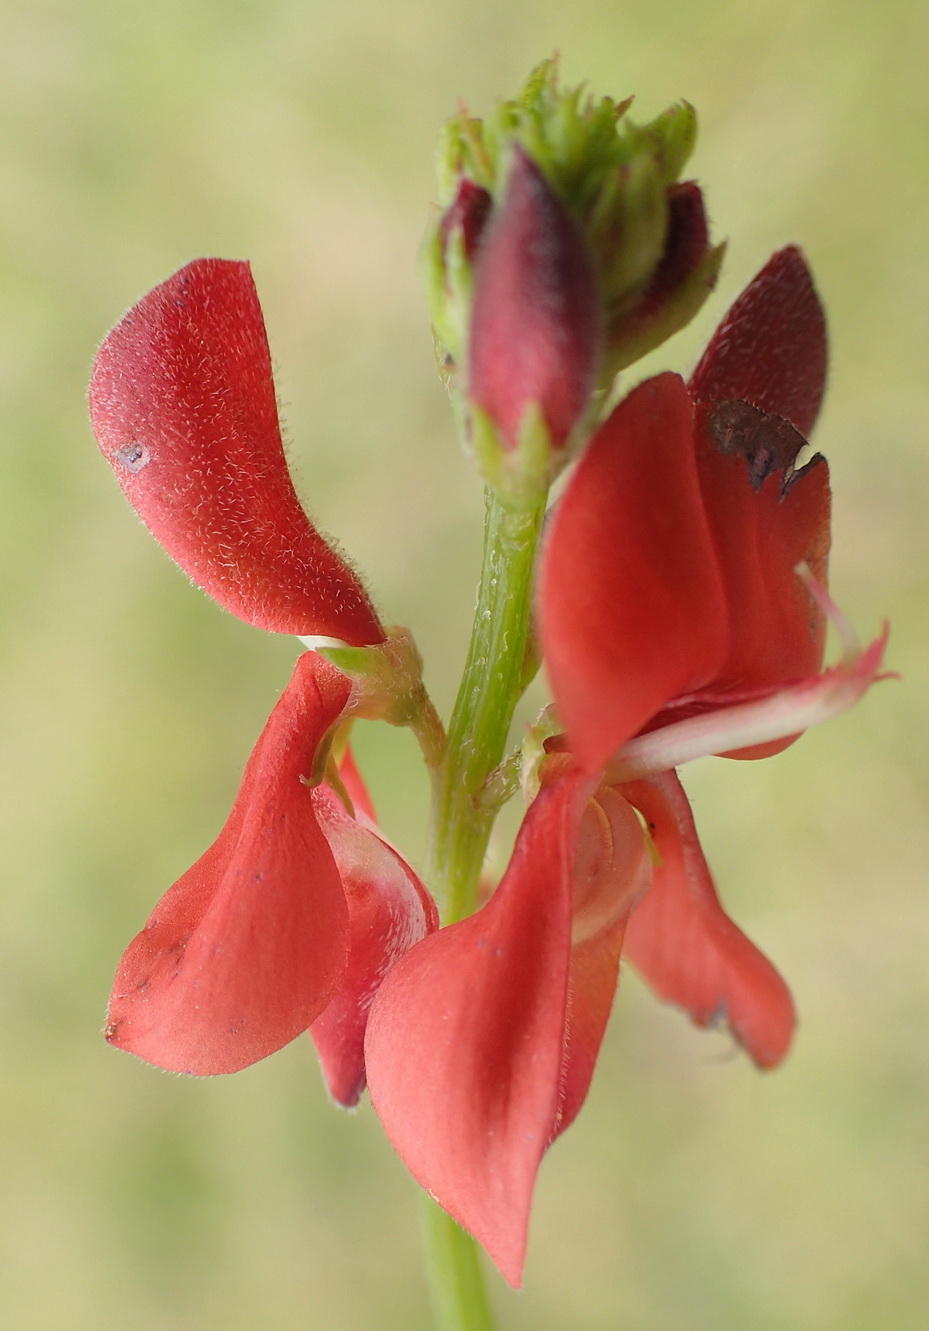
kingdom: Plantae
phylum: Tracheophyta
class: Magnoliopsida
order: Fabales
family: Fabaceae
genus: Indigofera
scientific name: Indigofera erecta
